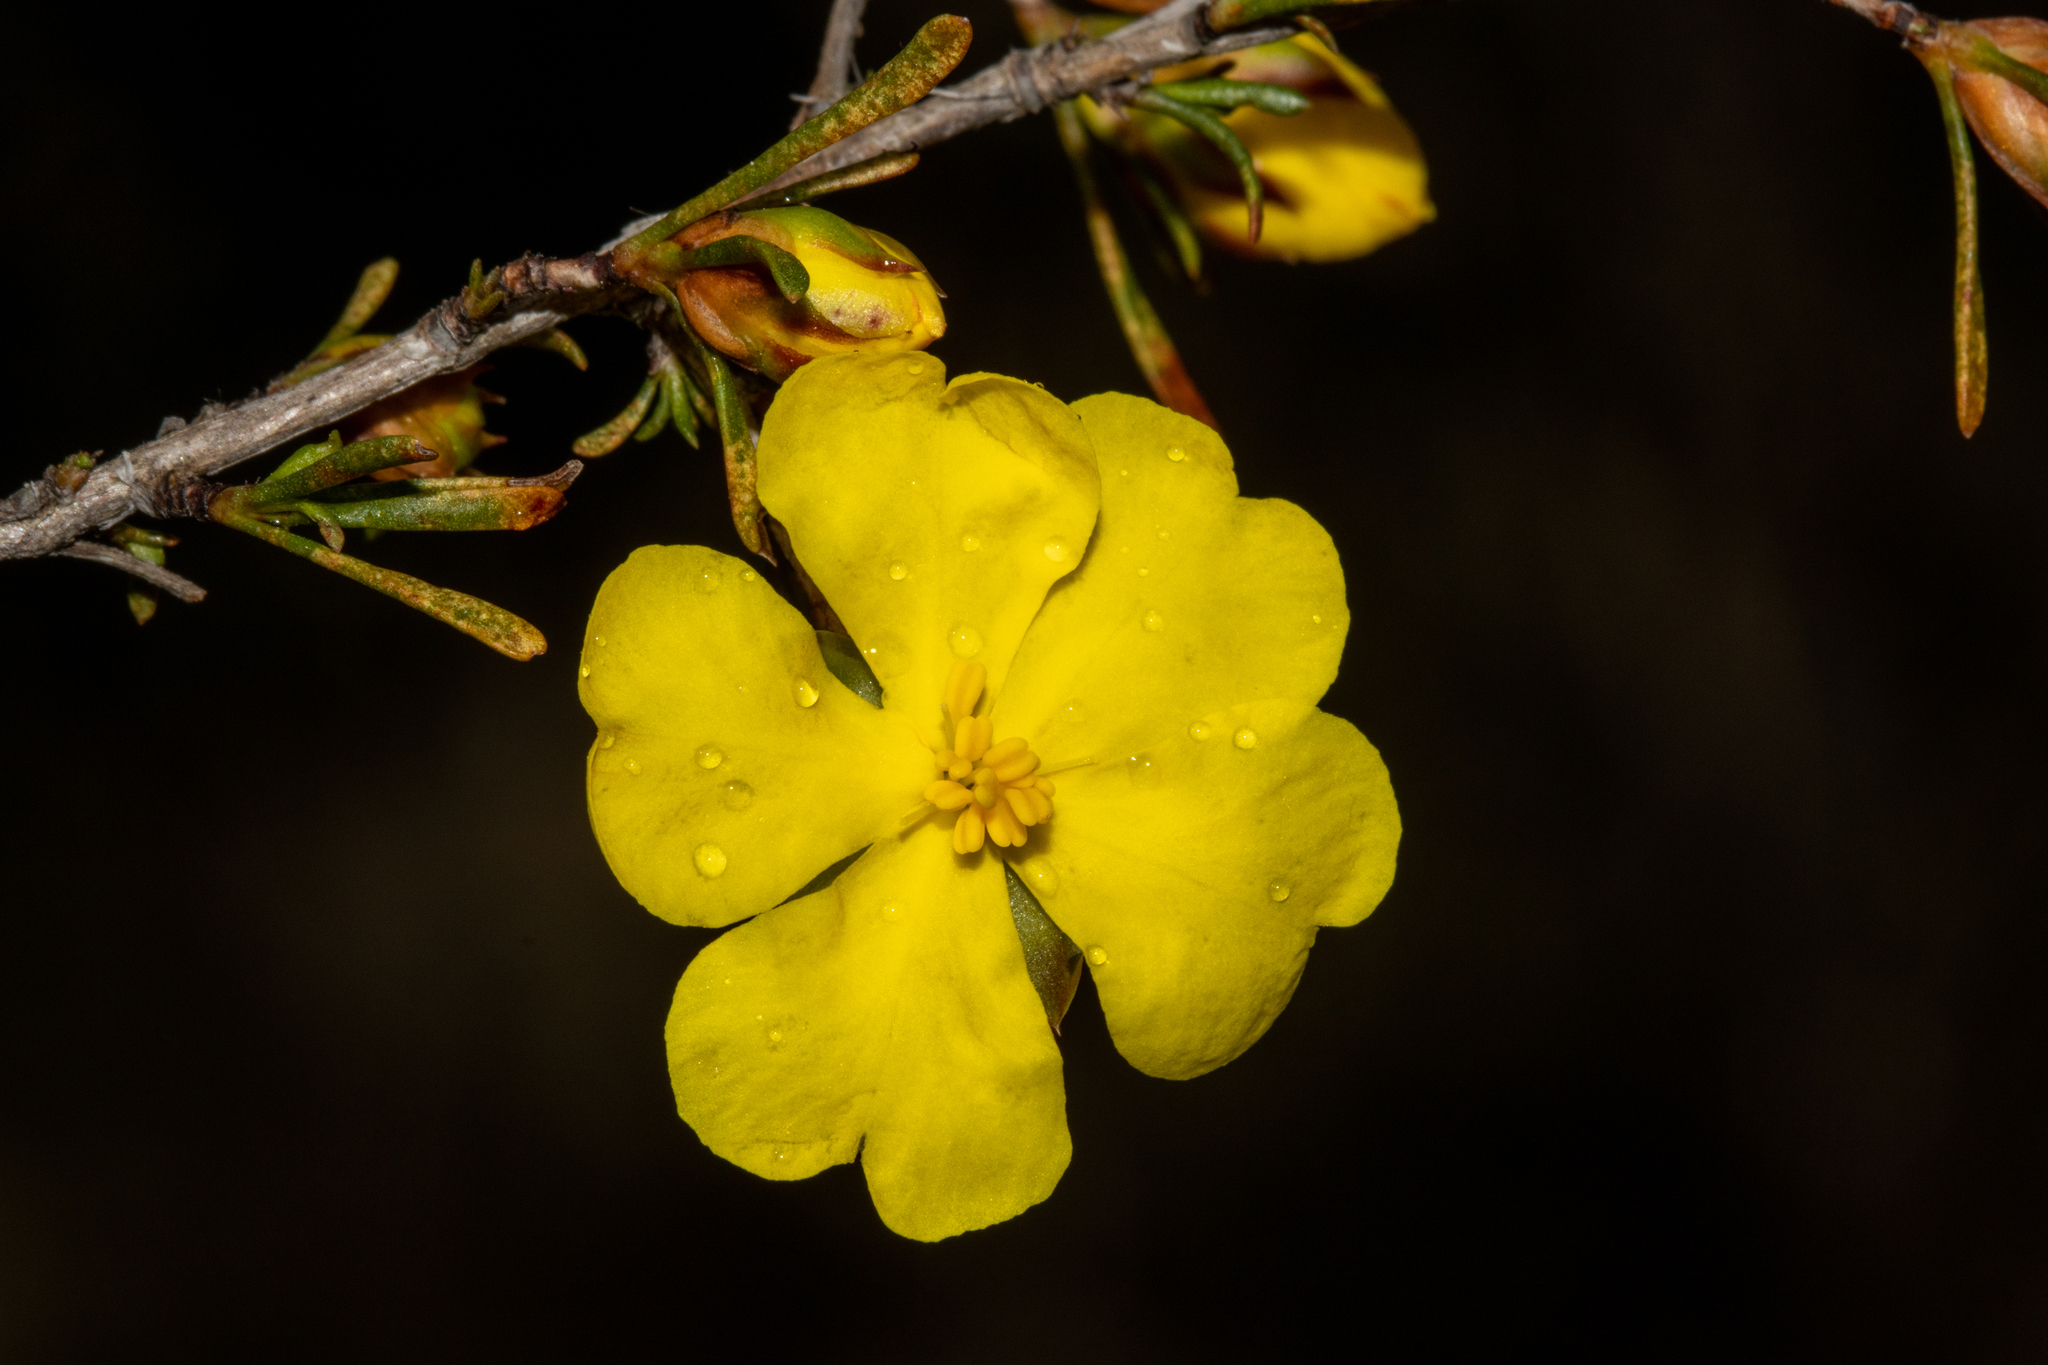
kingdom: Plantae
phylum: Tracheophyta
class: Magnoliopsida
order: Dilleniales
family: Dilleniaceae
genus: Hibbertia
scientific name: Hibbertia virgata
